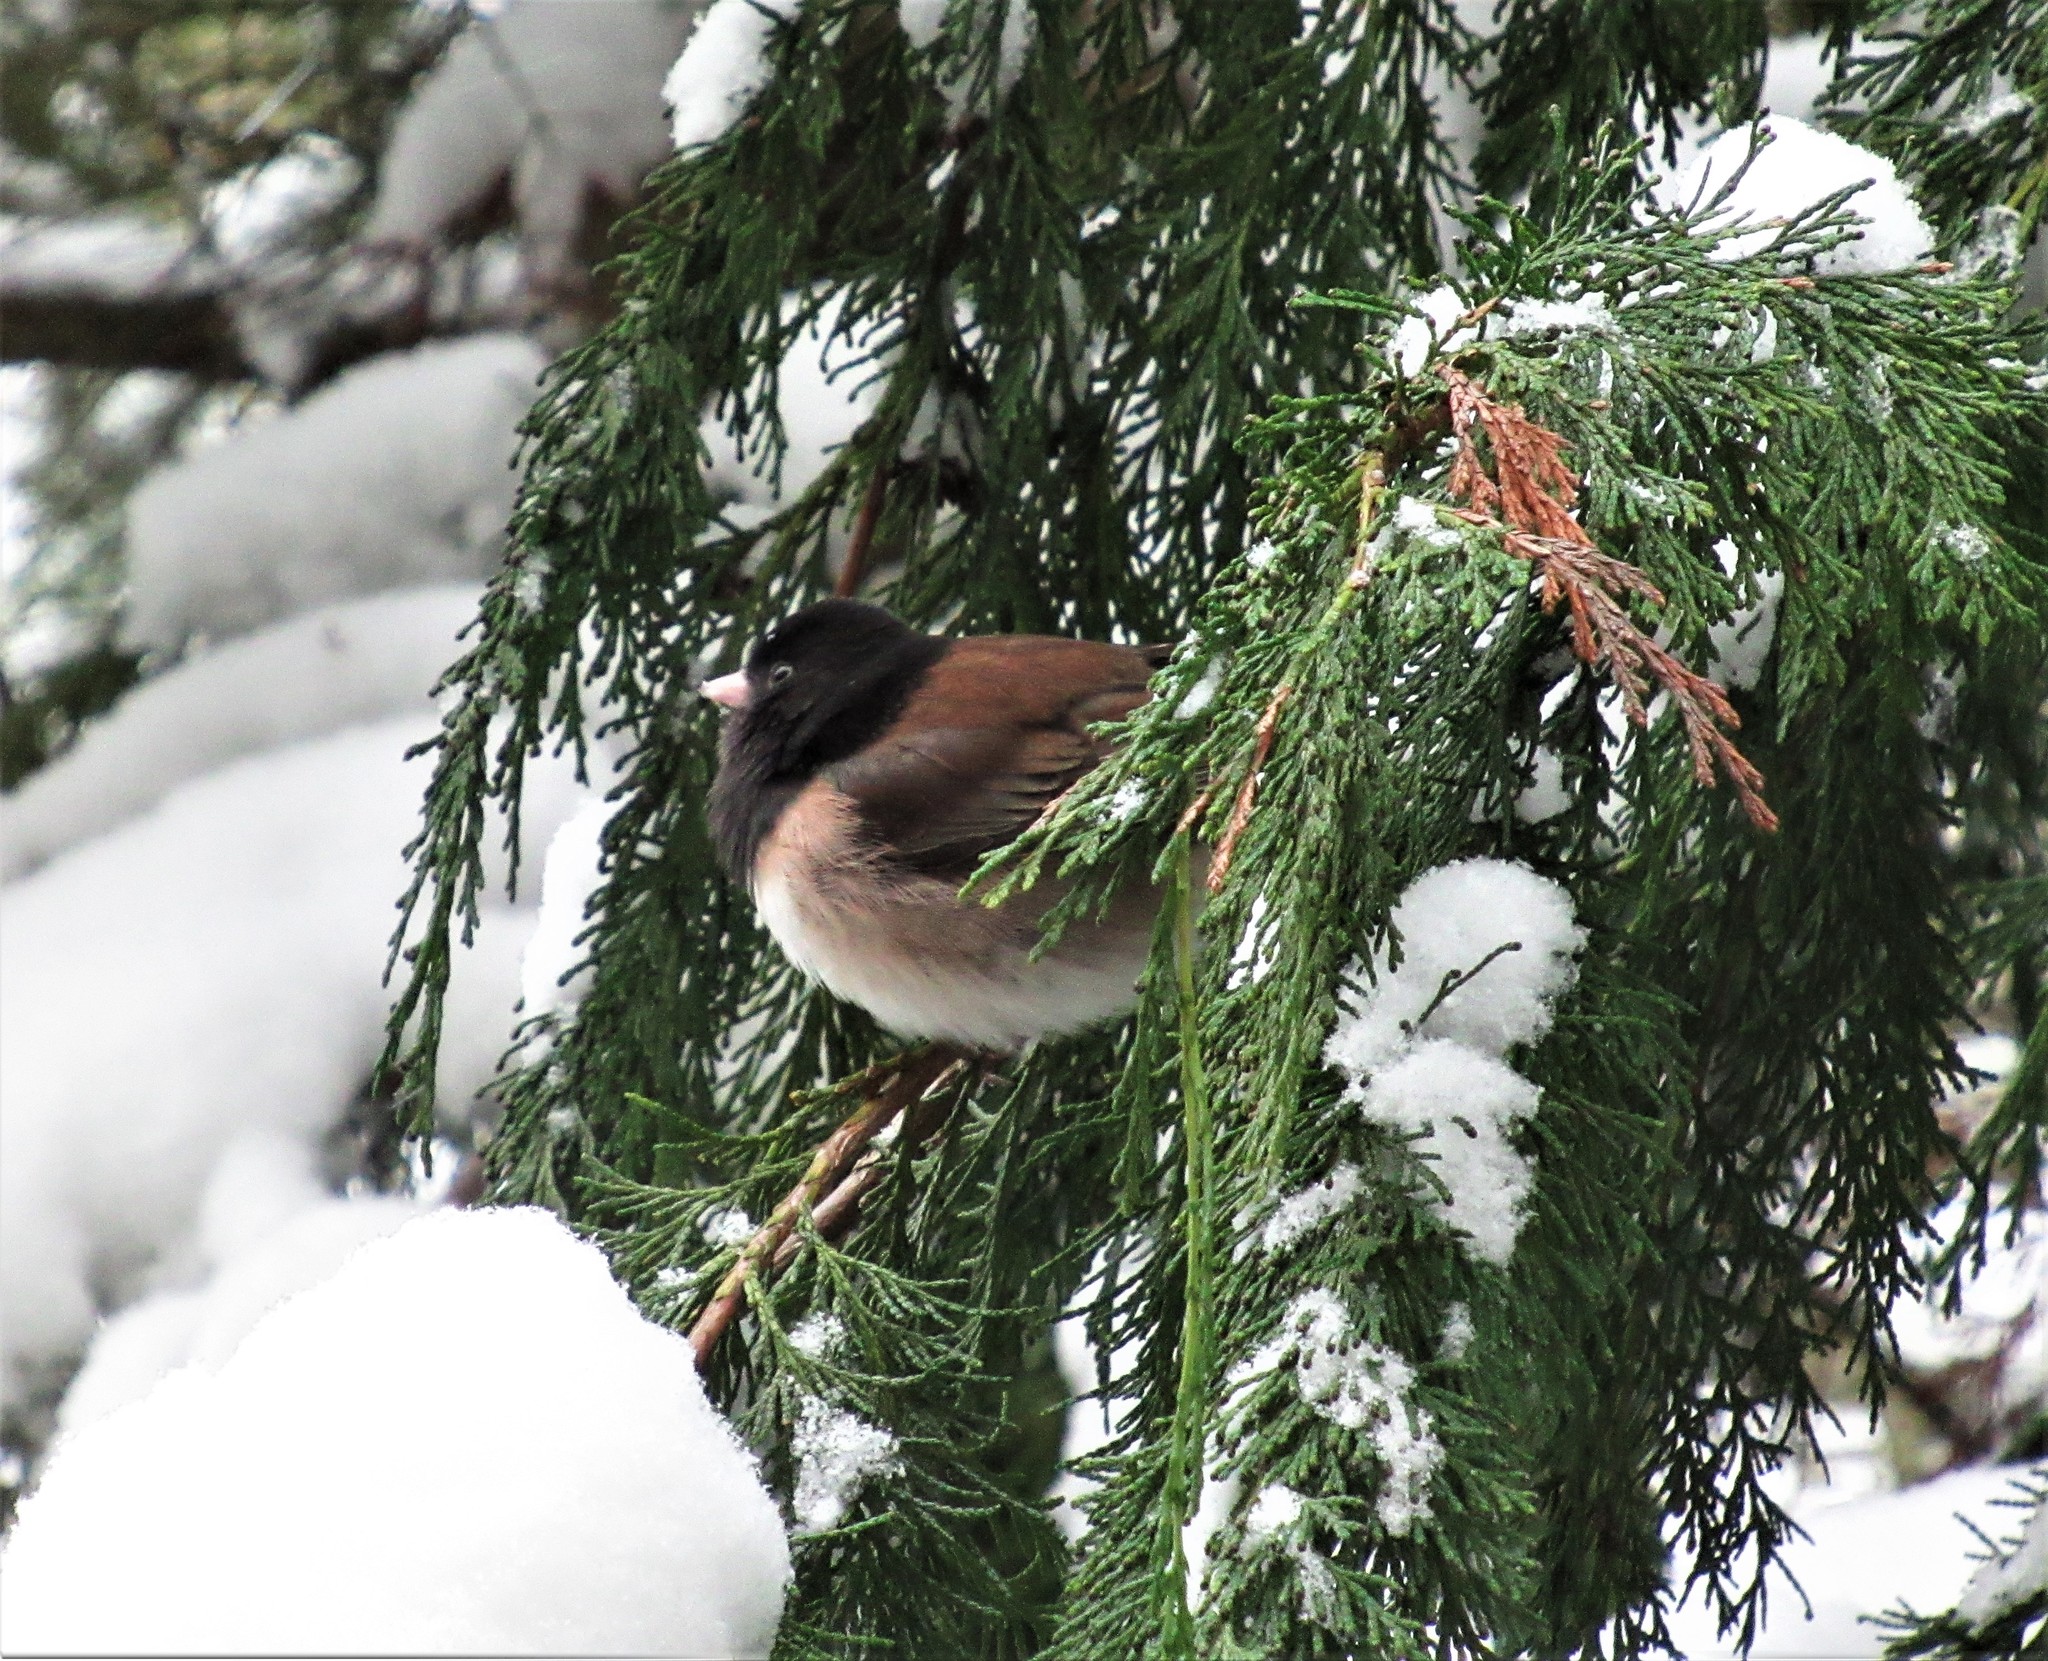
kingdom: Animalia
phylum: Chordata
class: Aves
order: Passeriformes
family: Passerellidae
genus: Junco
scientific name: Junco hyemalis
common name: Dark-eyed junco
